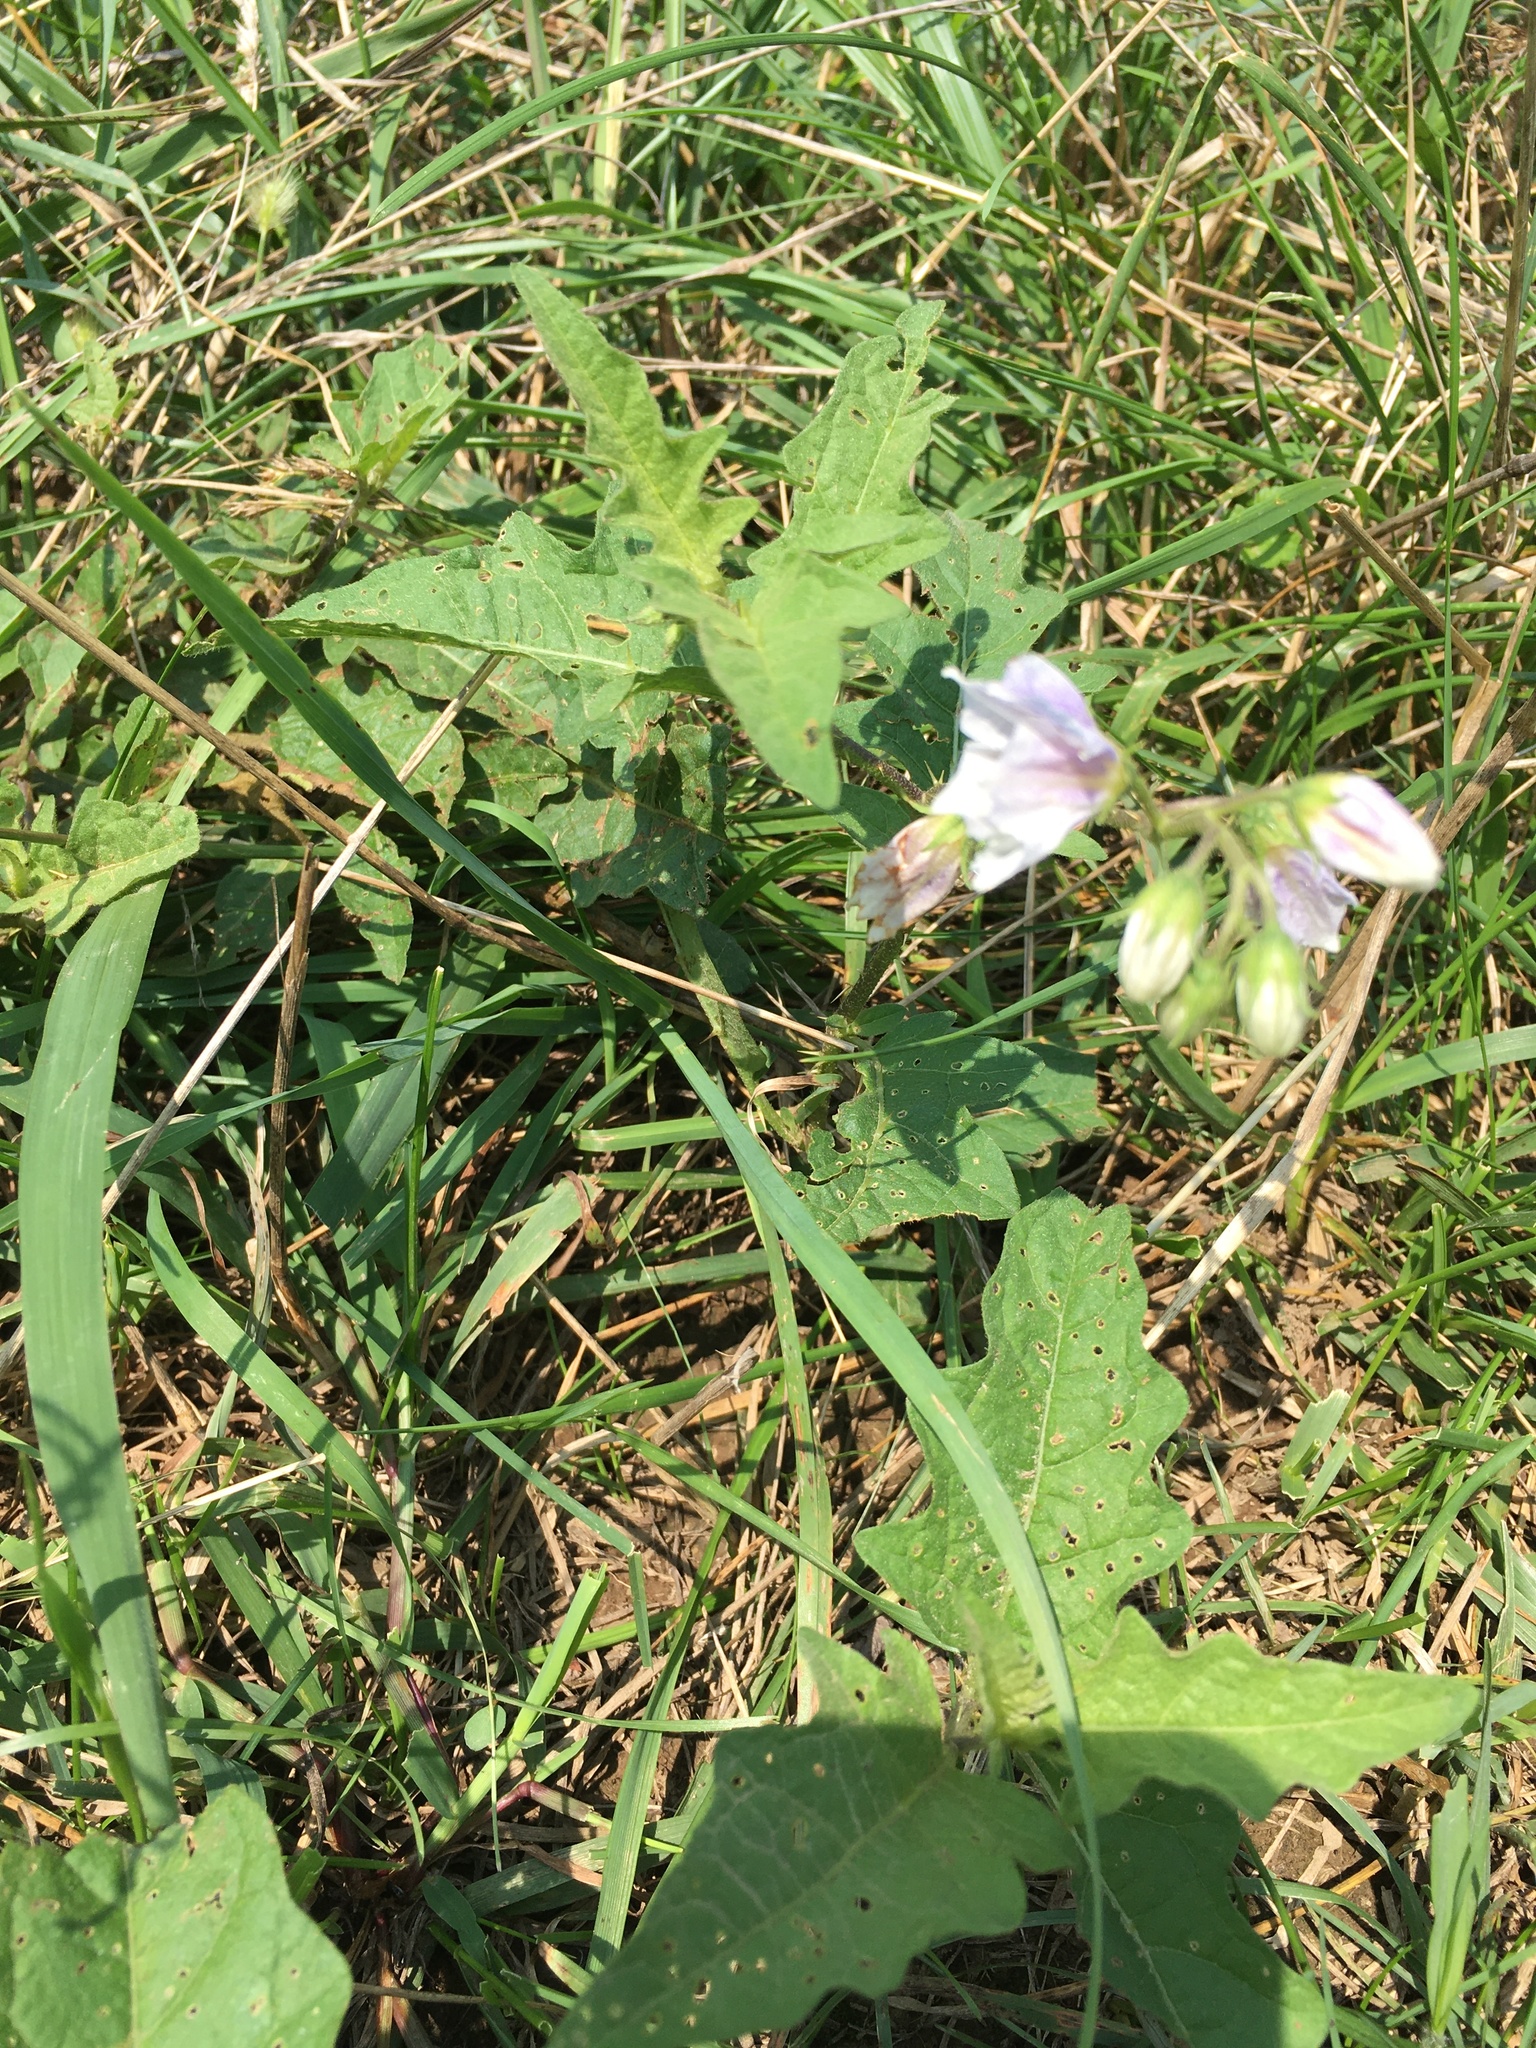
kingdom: Plantae
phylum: Tracheophyta
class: Magnoliopsida
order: Solanales
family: Solanaceae
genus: Solanum
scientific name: Solanum carolinense
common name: Horse-nettle
